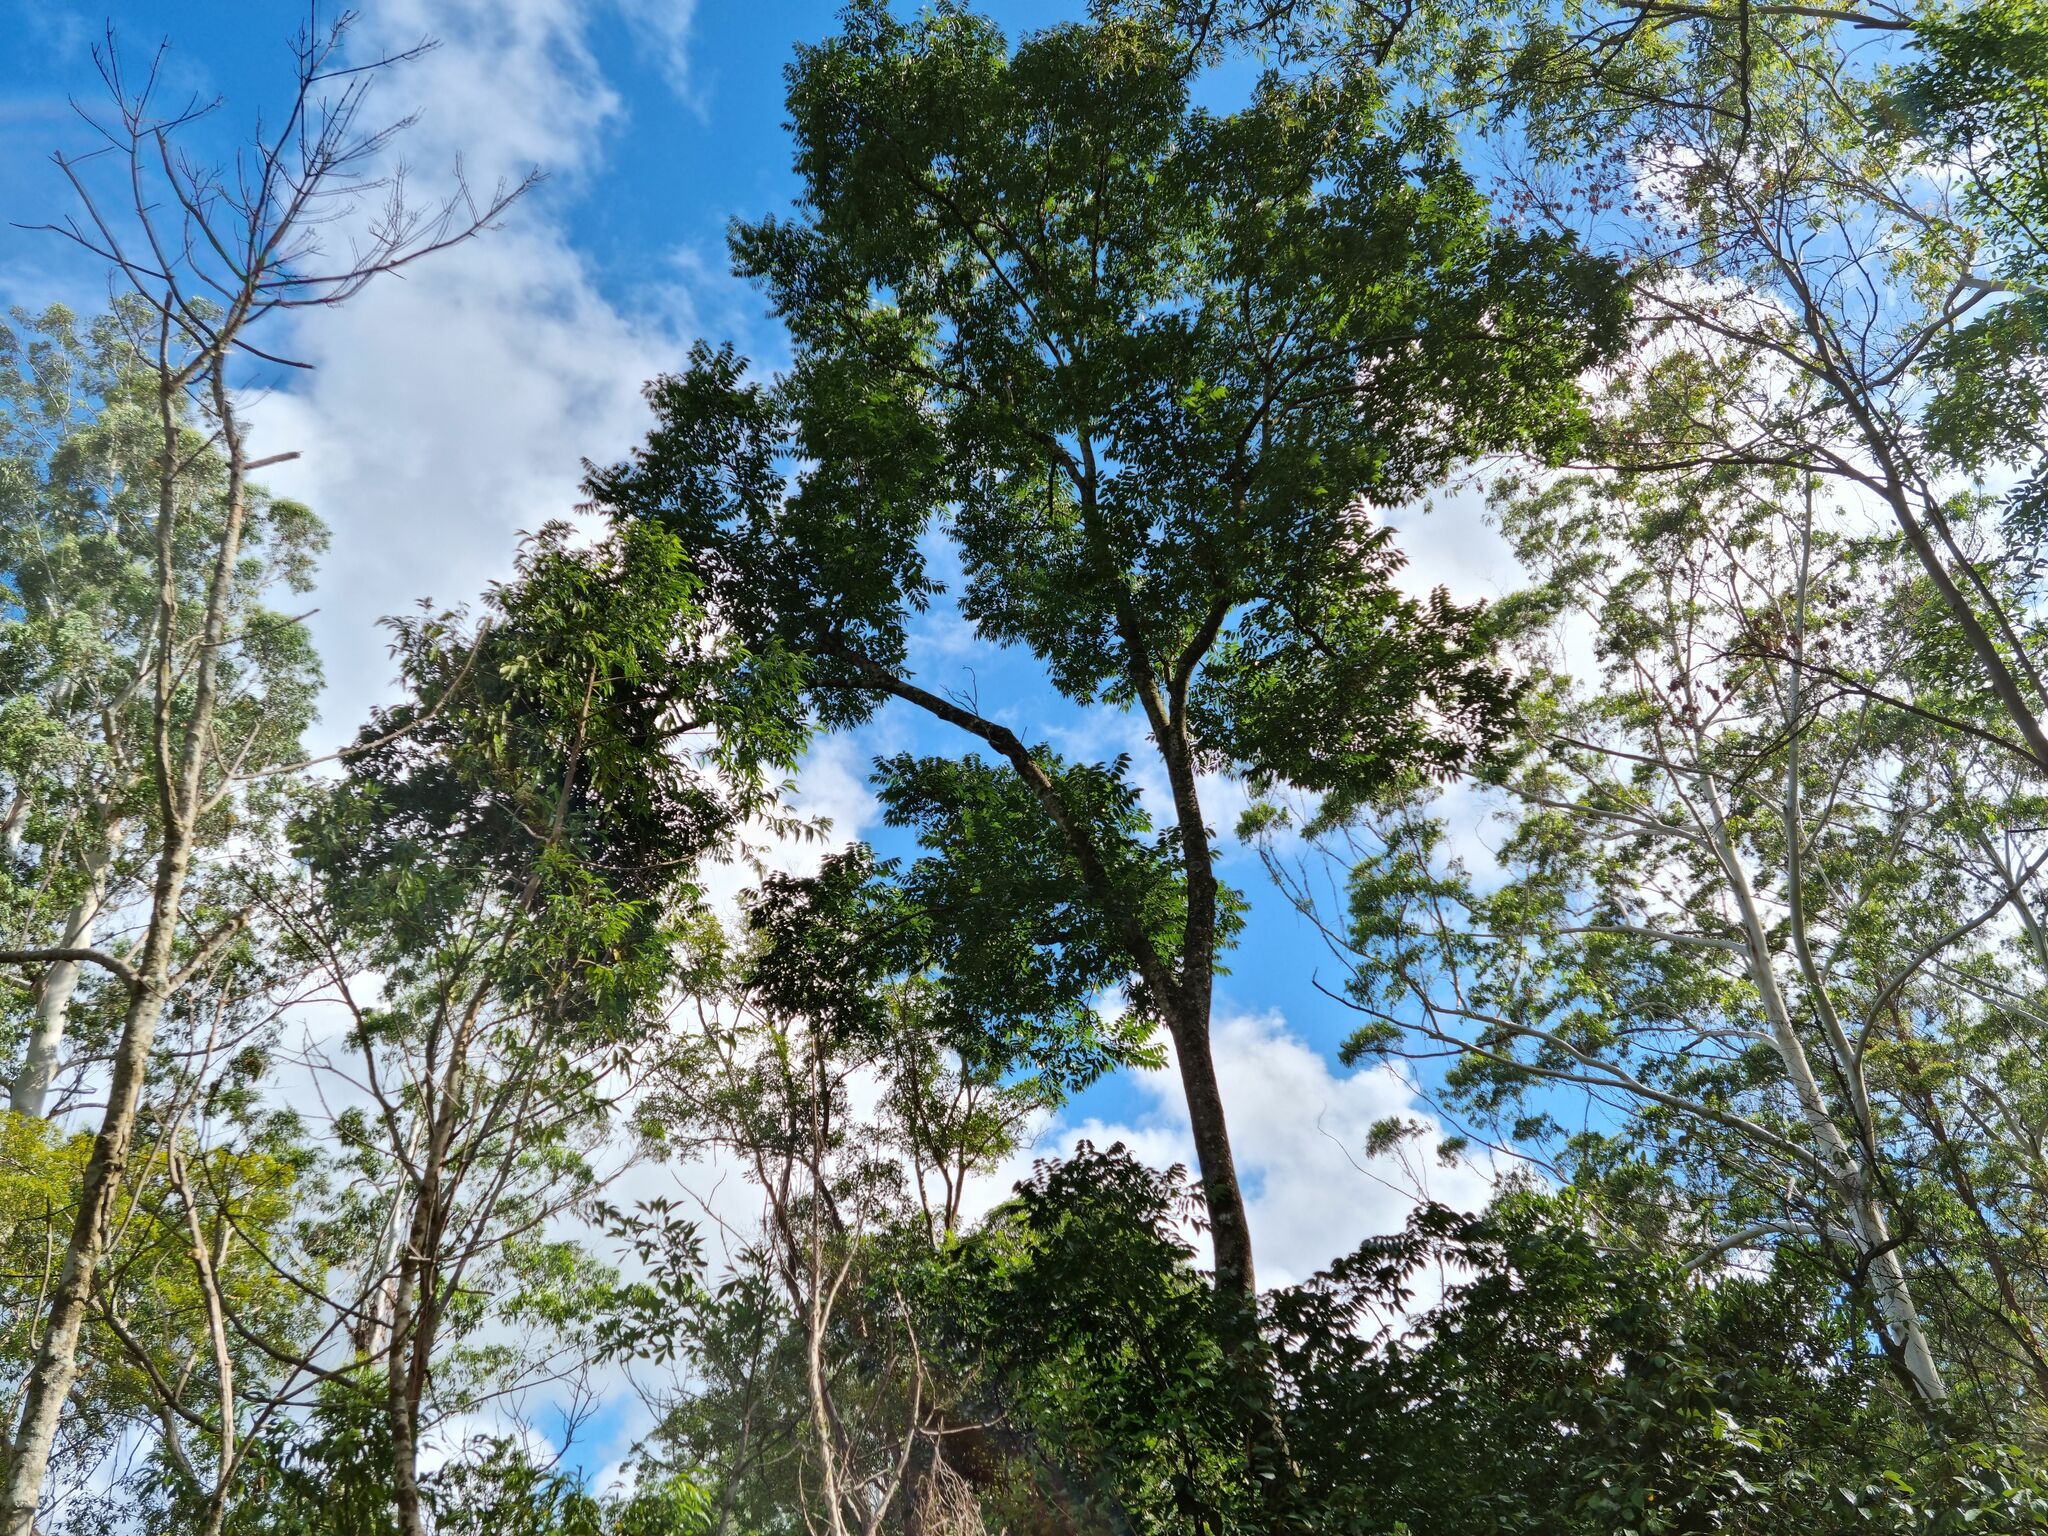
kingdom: Plantae
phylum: Tracheophyta
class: Magnoliopsida
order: Sapindales
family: Meliaceae
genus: Toona
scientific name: Toona ciliata
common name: Australian redcedar
